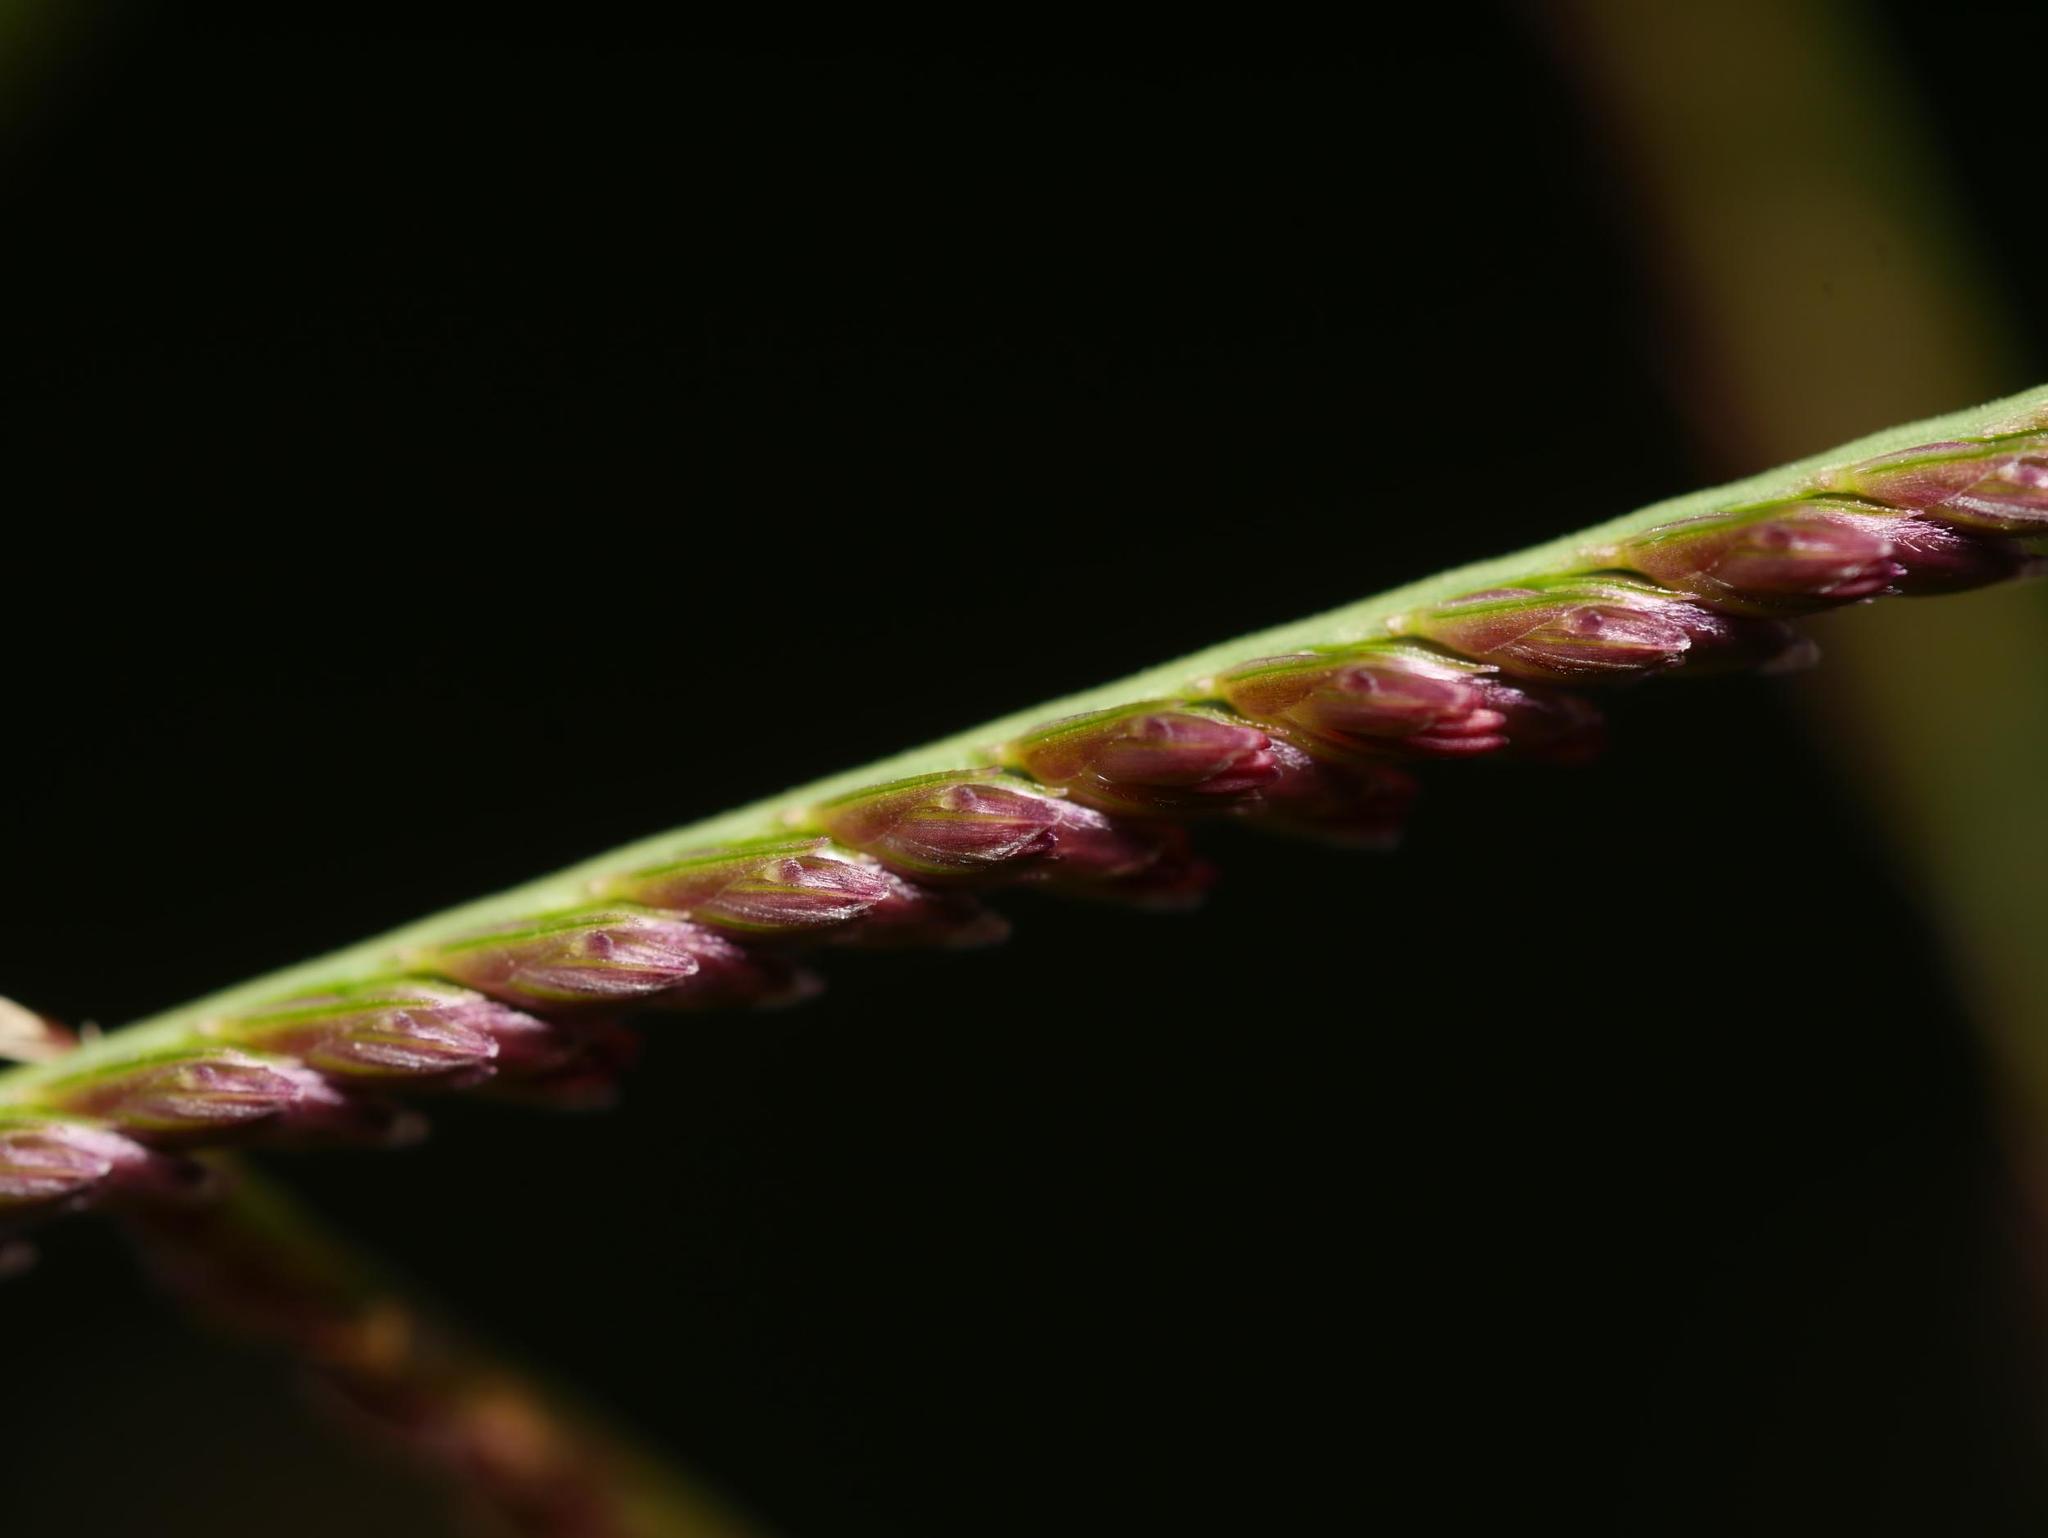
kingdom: Plantae
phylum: Tracheophyta
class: Liliopsida
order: Poales
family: Poaceae
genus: Cynodon
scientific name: Cynodon dactylon
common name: Bermuda grass
